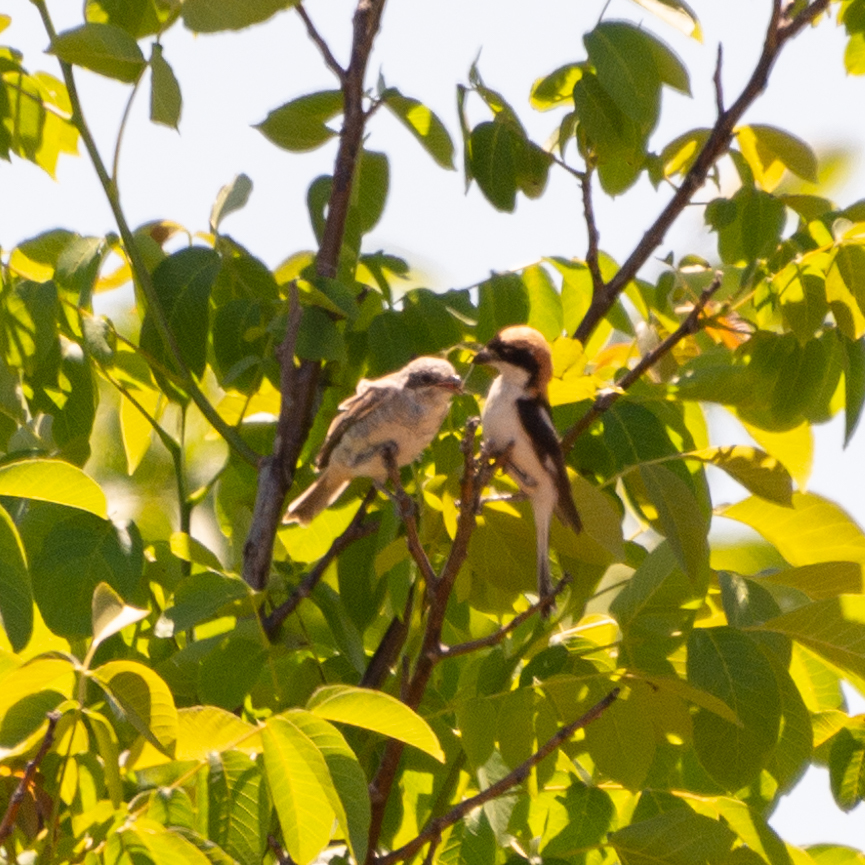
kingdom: Animalia
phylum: Chordata
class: Aves
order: Passeriformes
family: Laniidae
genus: Lanius
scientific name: Lanius senator
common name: Woodchat shrike
